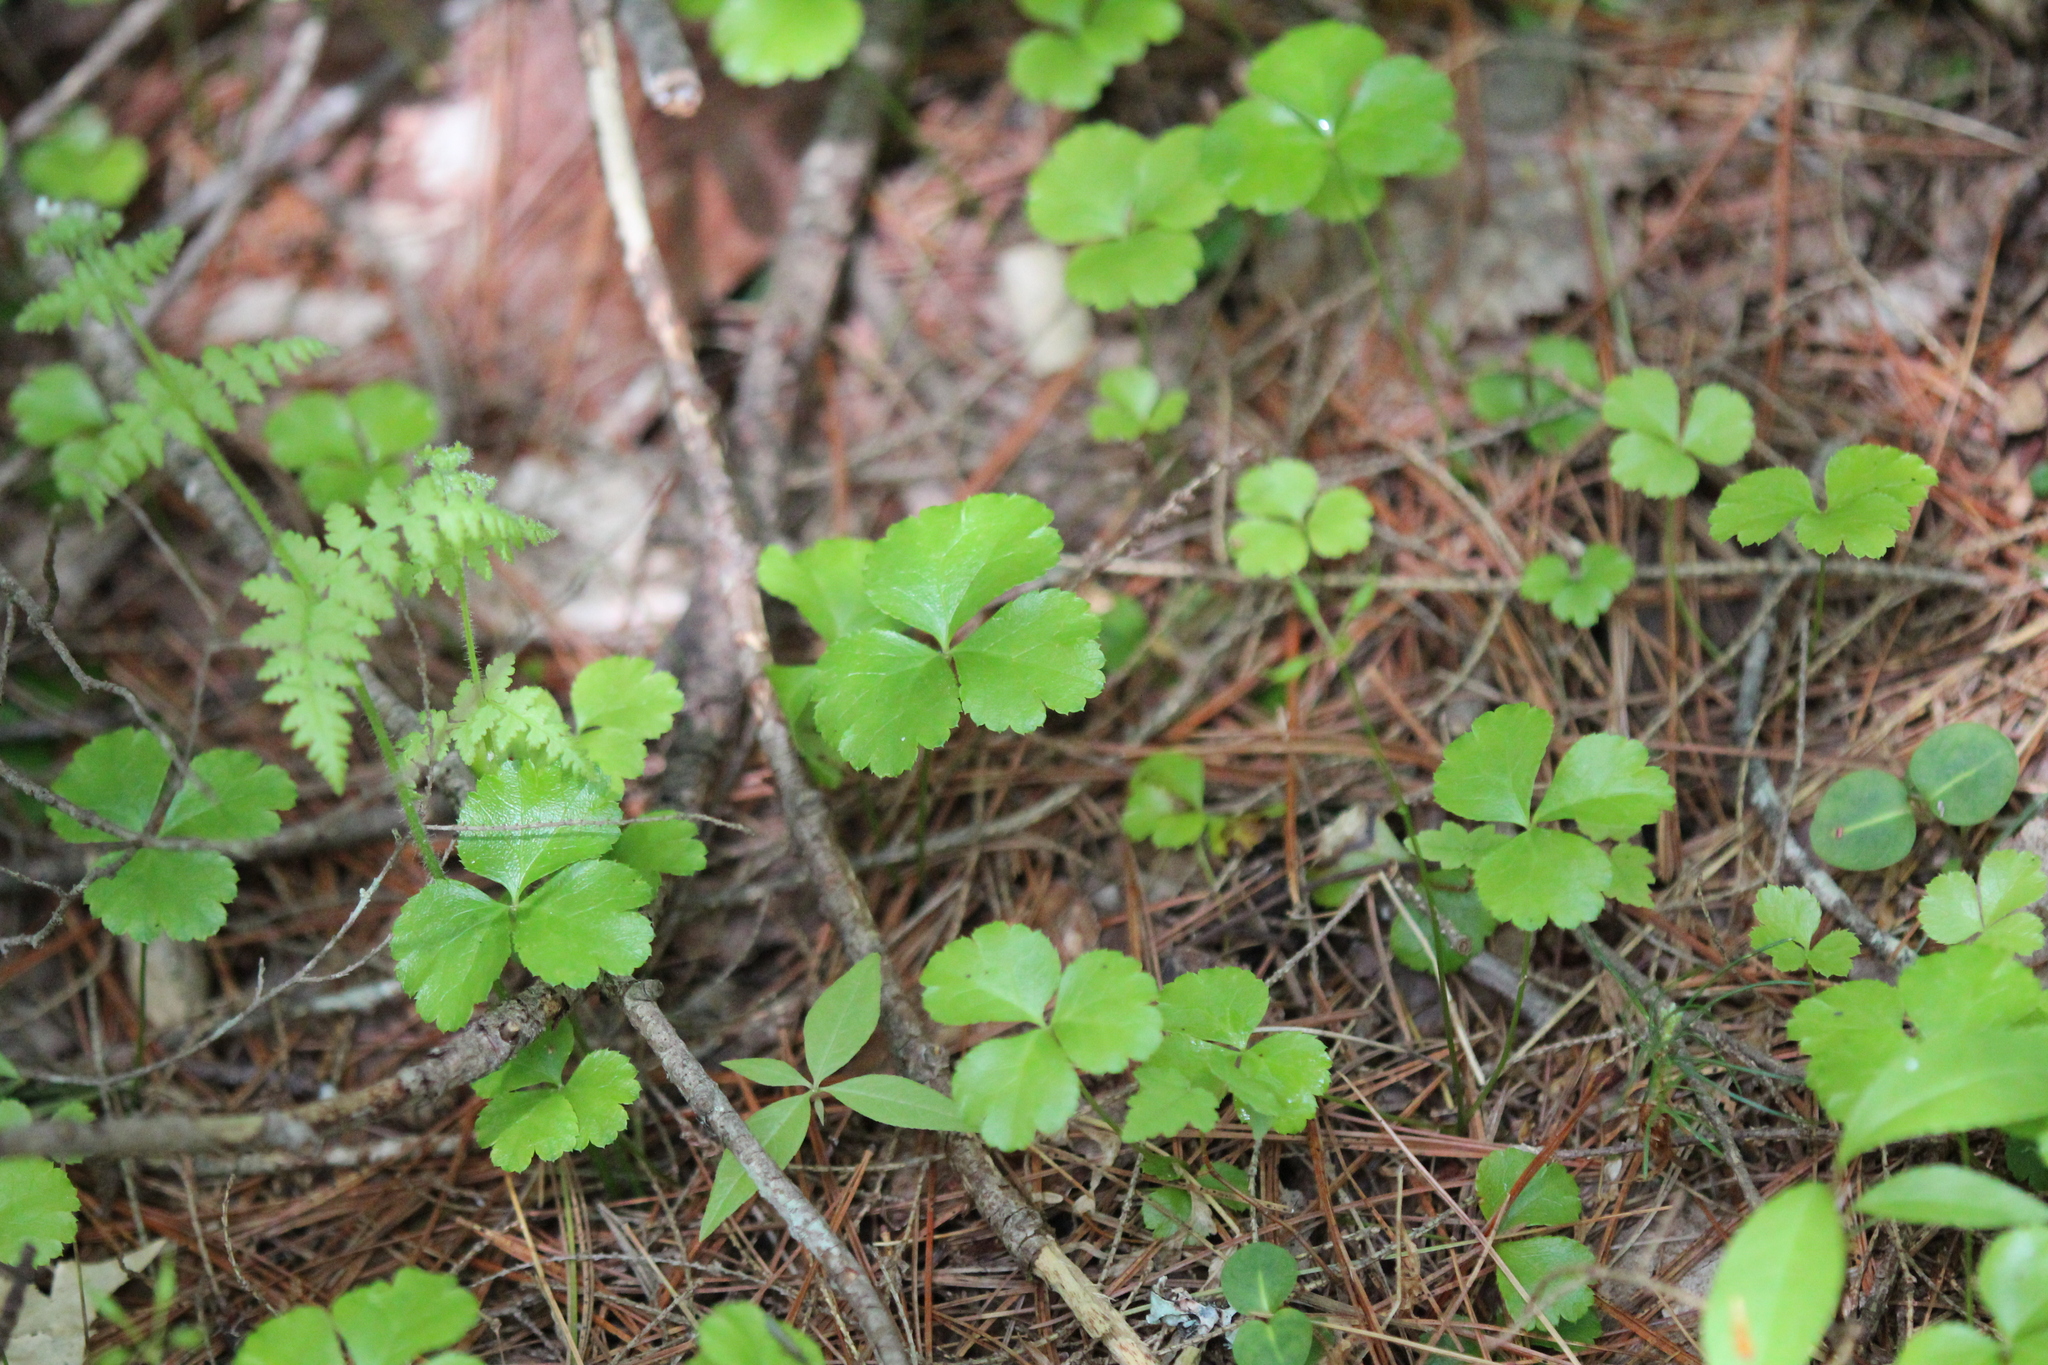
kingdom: Plantae
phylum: Tracheophyta
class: Magnoliopsida
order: Ranunculales
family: Ranunculaceae
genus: Coptis
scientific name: Coptis trifolia
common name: Canker-root
